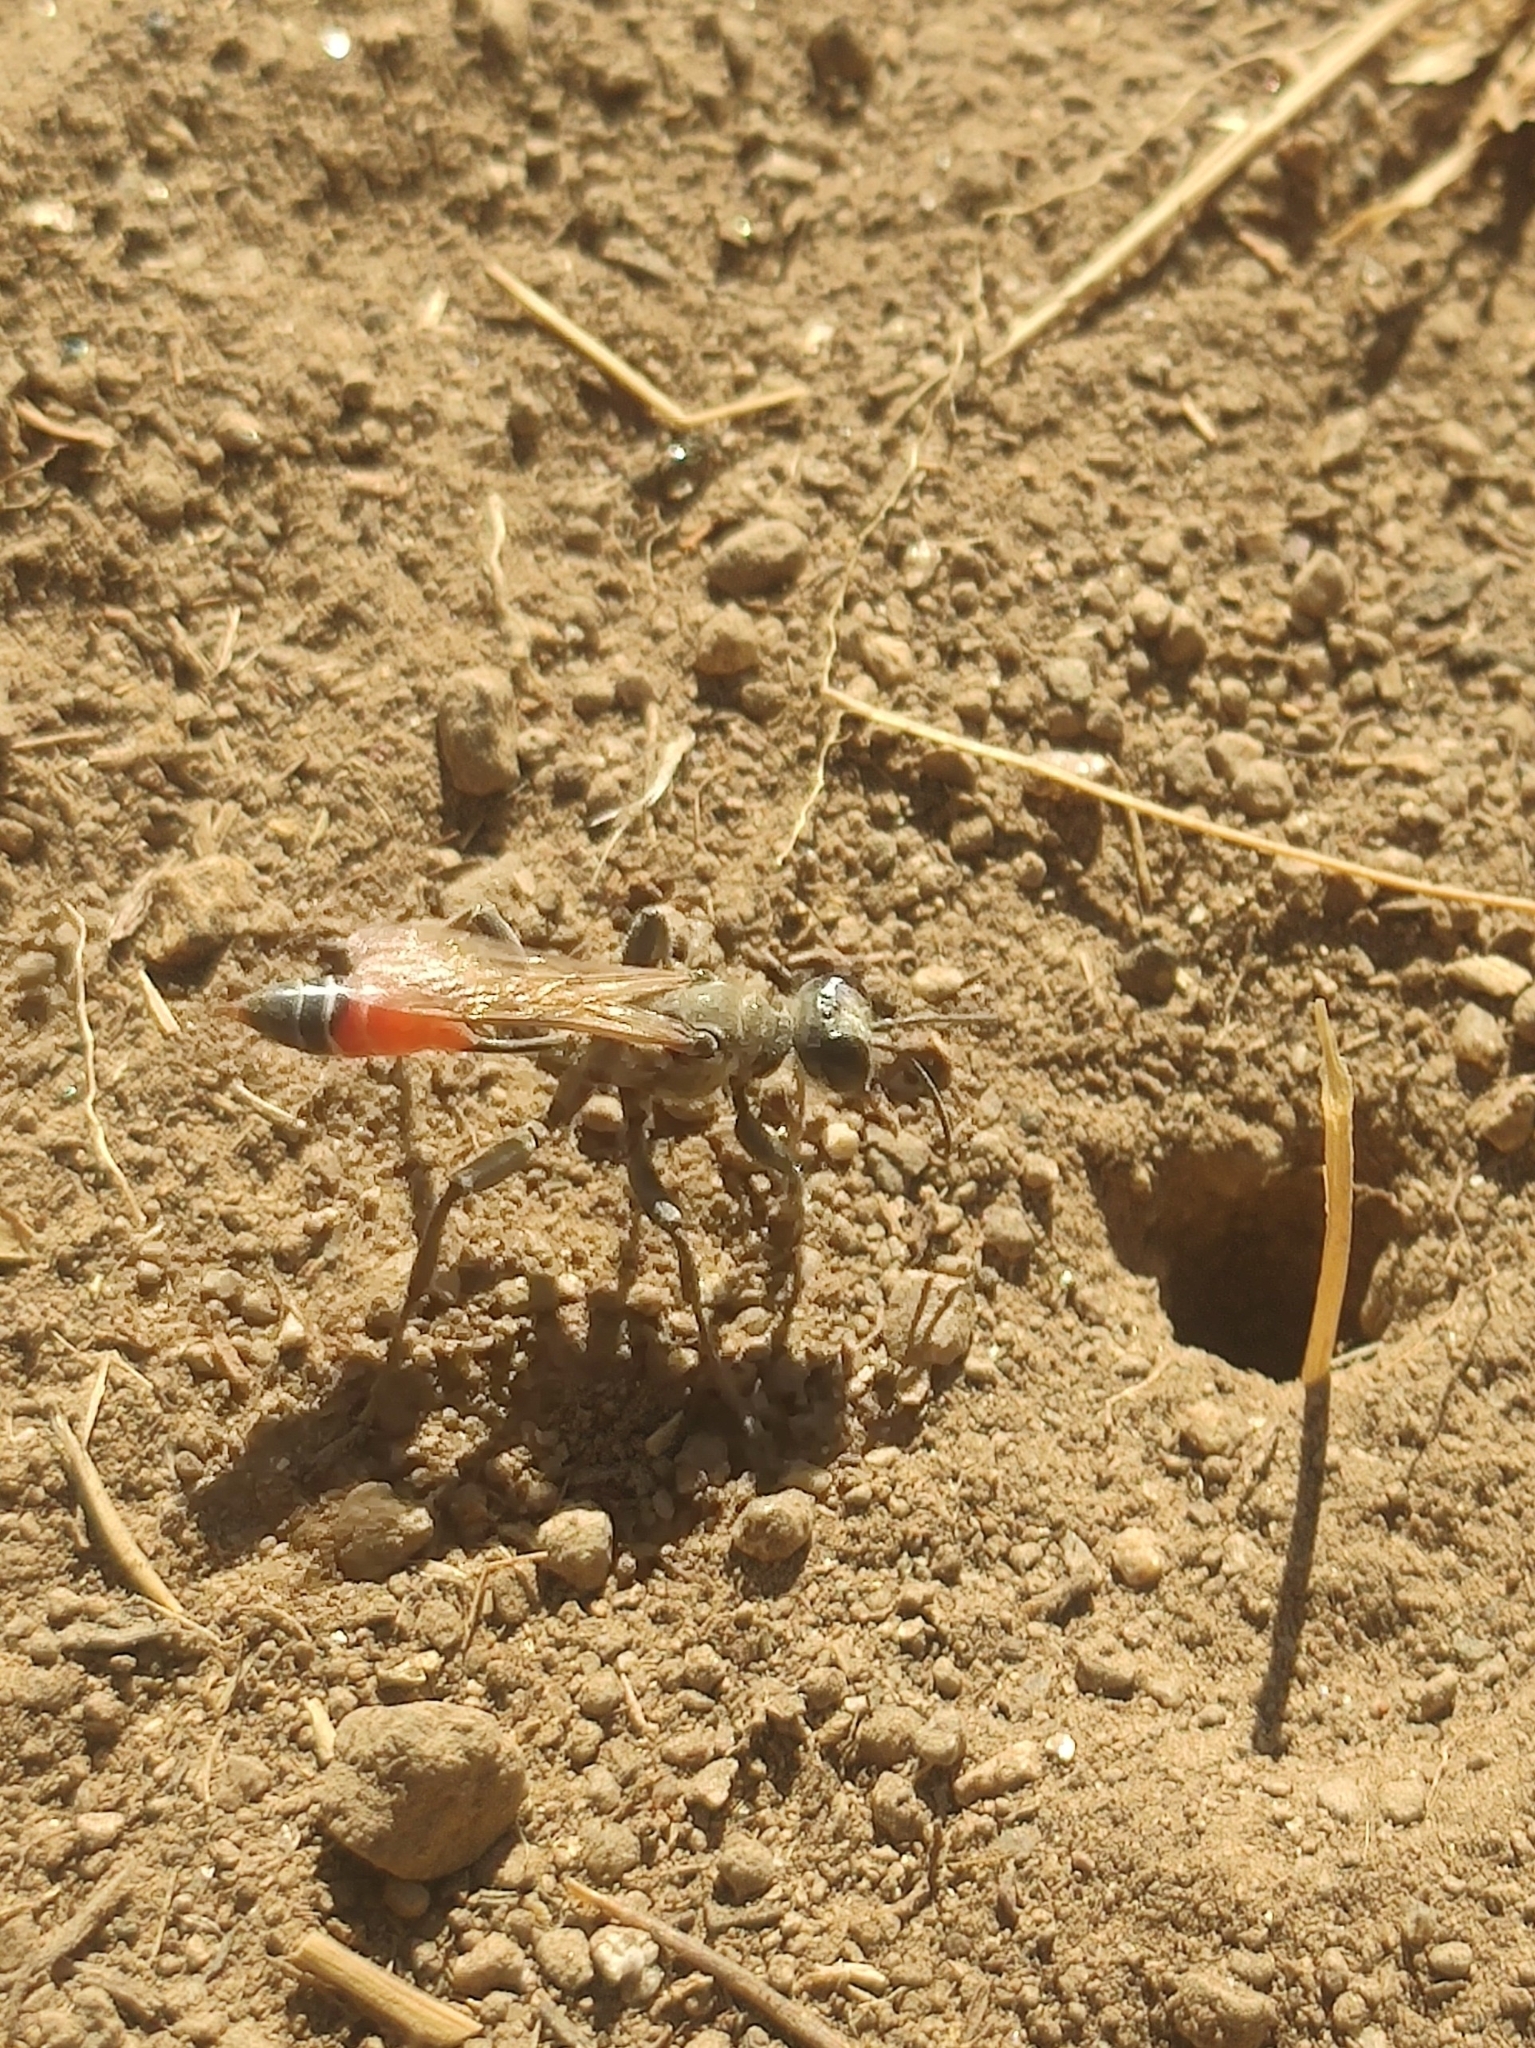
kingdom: Animalia
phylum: Arthropoda
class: Insecta
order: Hymenoptera
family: Sphecidae
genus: Prionyx
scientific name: Prionyx kirbii
